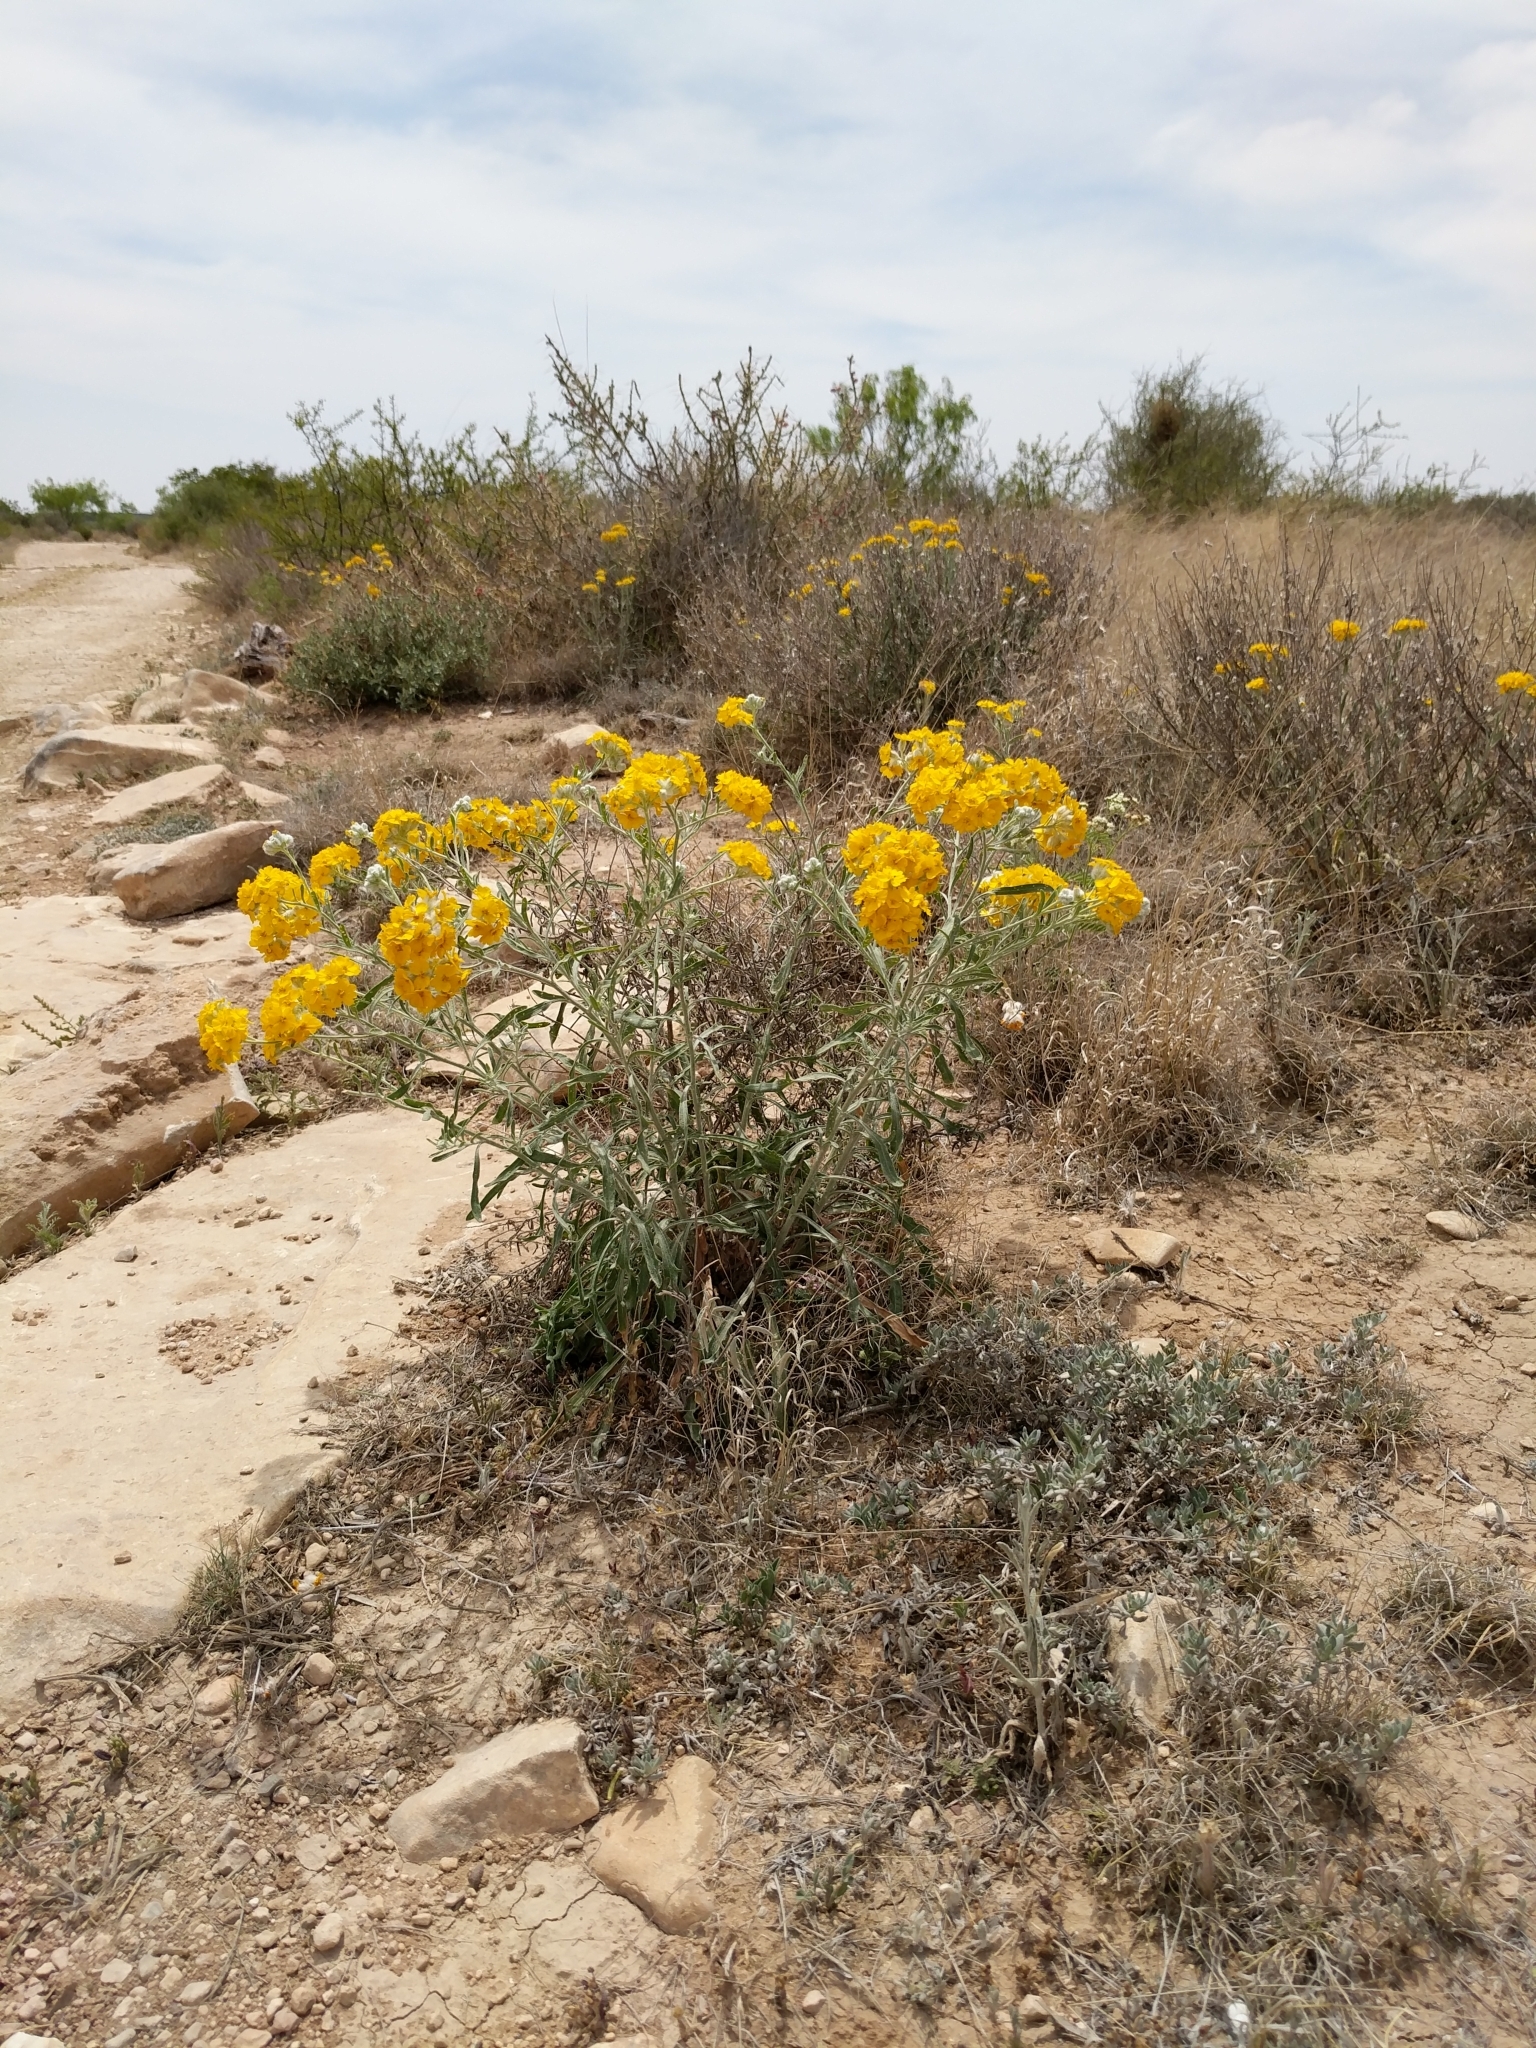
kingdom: Plantae
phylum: Tracheophyta
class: Magnoliopsida
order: Asterales
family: Asteraceae
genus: Psilostrophe
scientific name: Psilostrophe gnaphalioides
